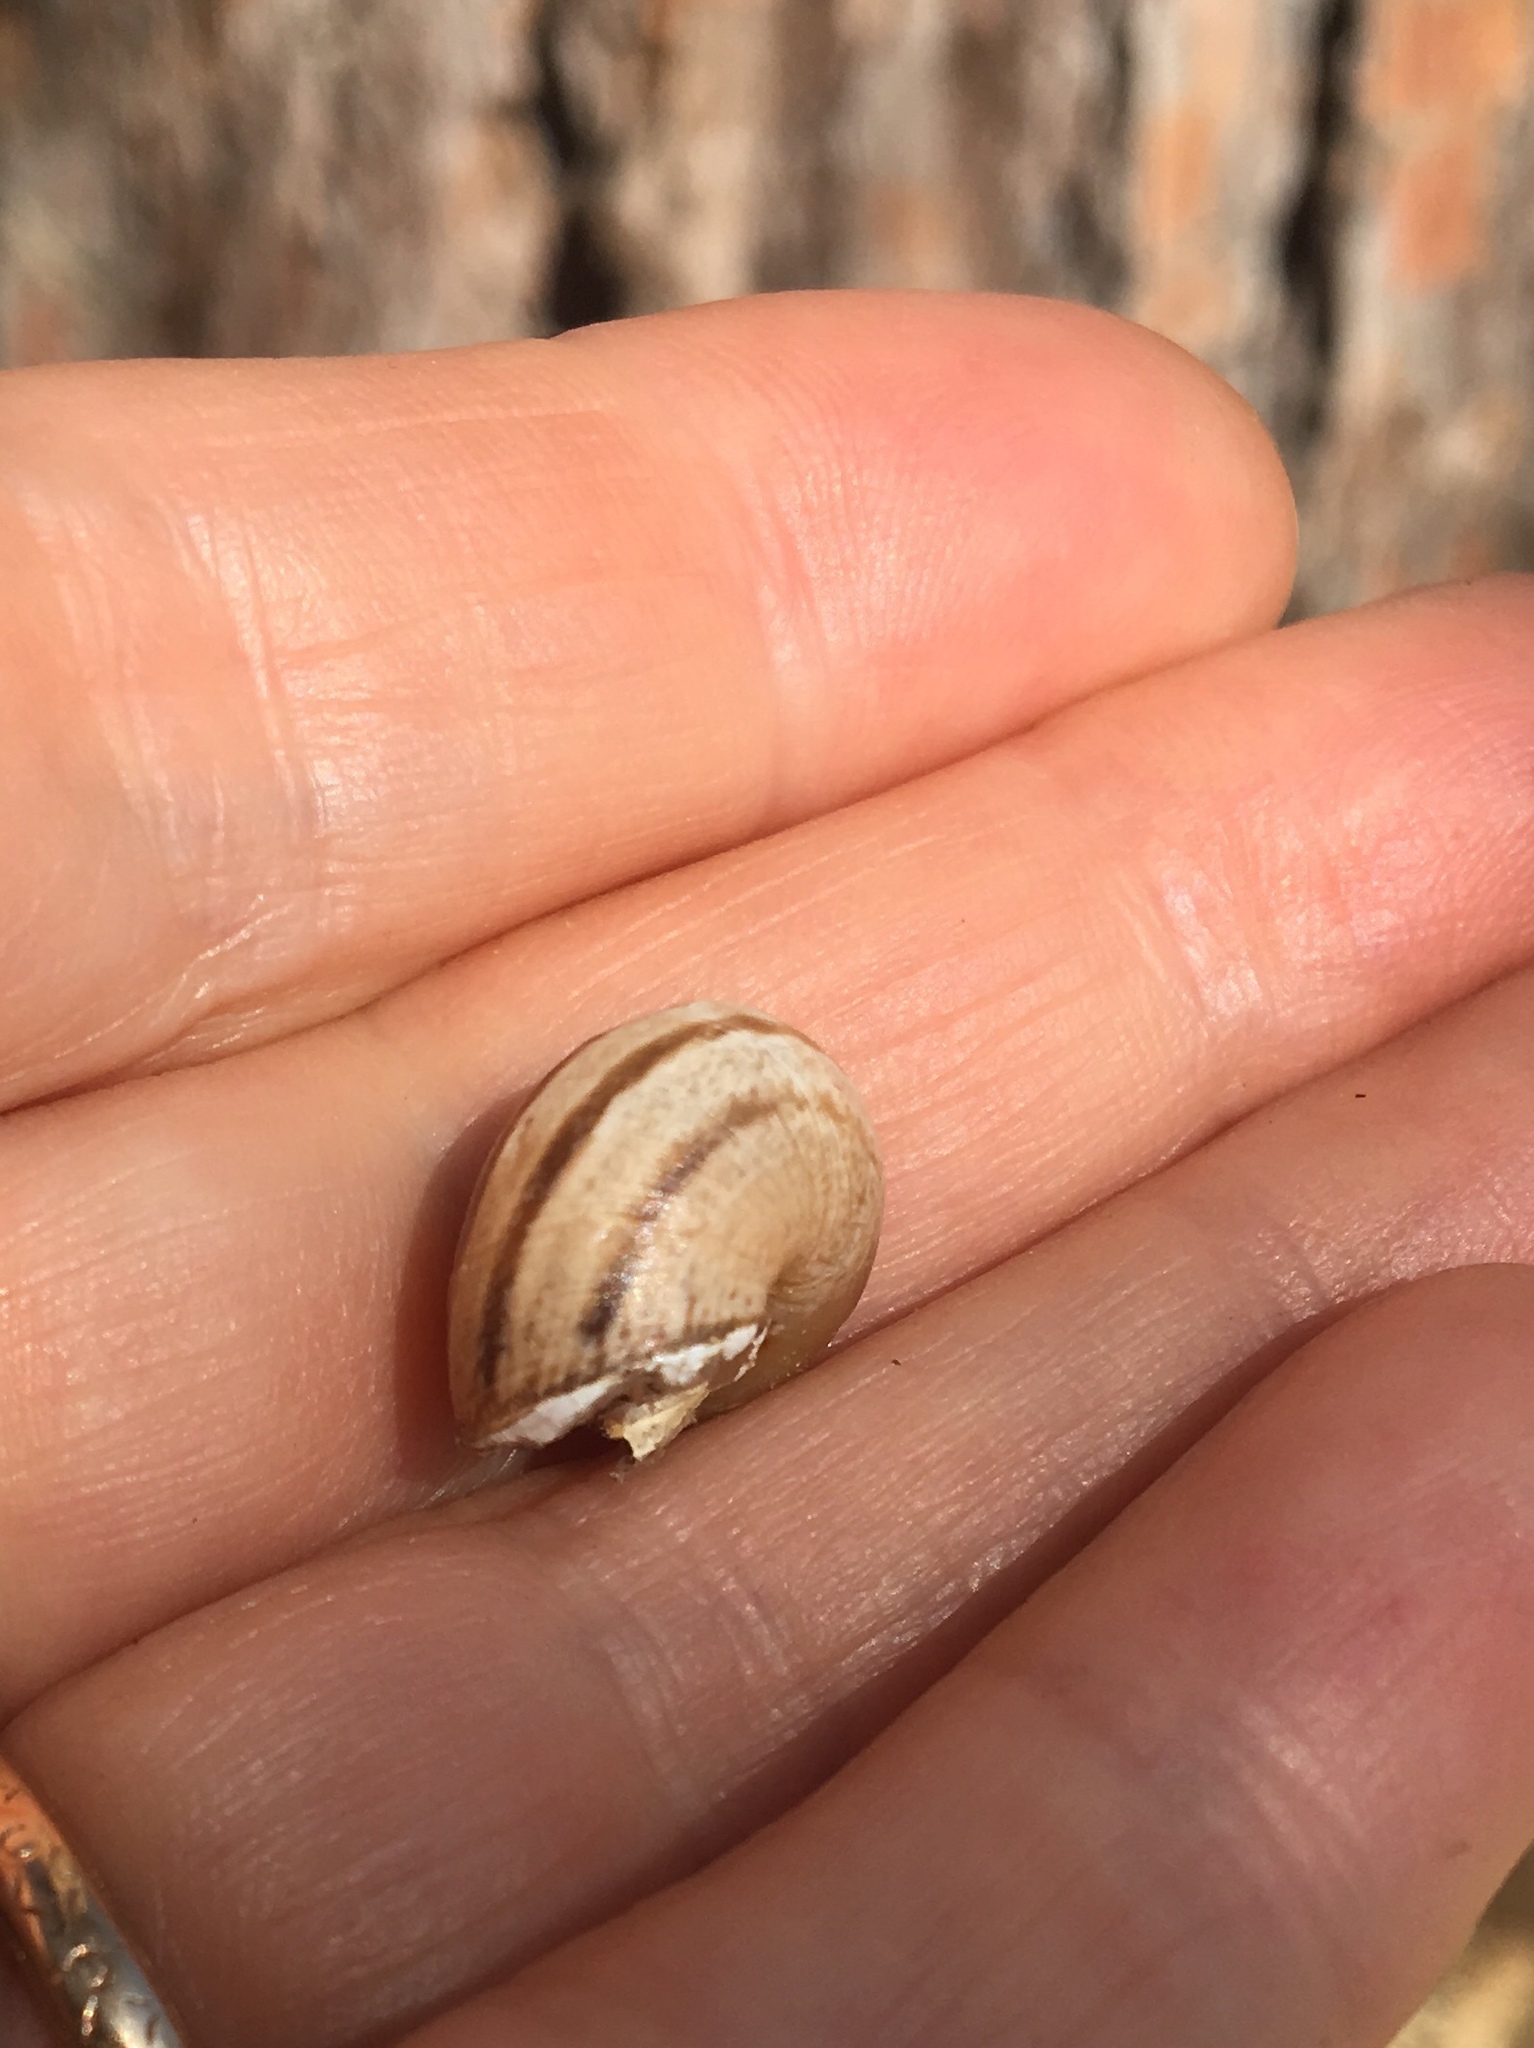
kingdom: Animalia
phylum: Mollusca
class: Gastropoda
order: Stylommatophora
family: Helicidae
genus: Otala
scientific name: Otala lactea
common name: Milk snail
